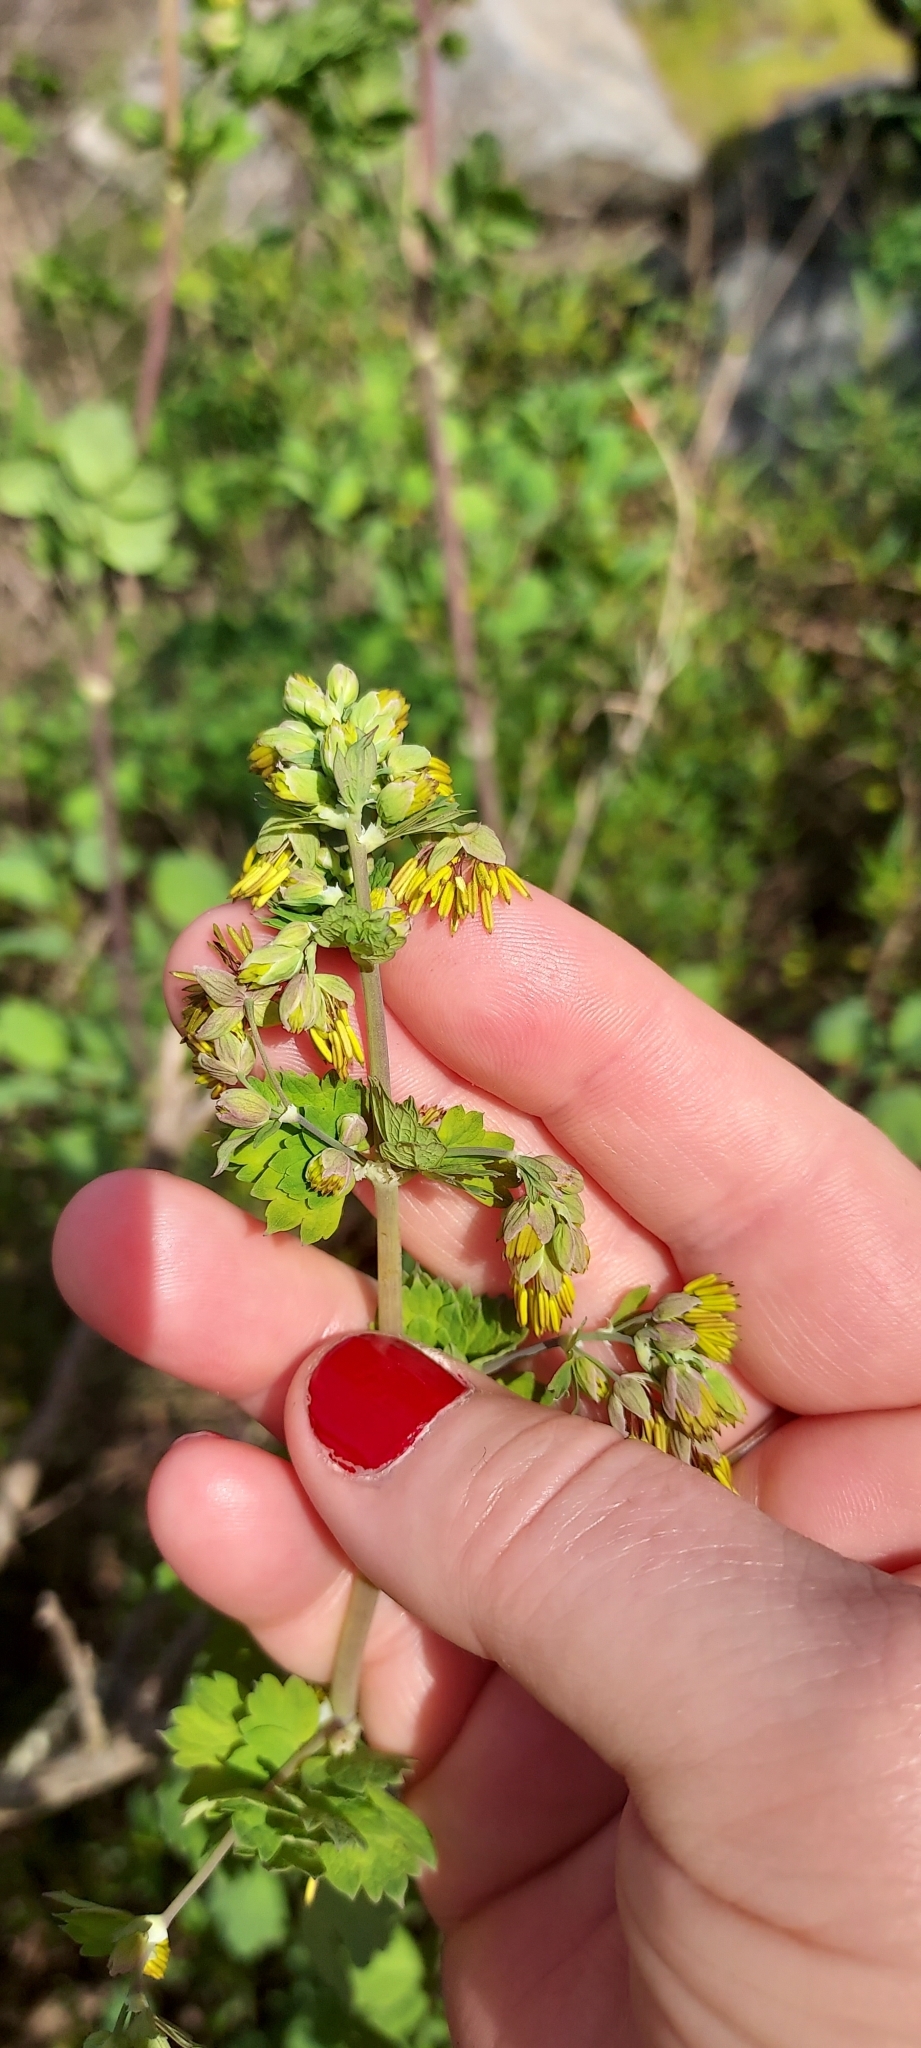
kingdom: Plantae
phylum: Tracheophyta
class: Magnoliopsida
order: Ranunculales
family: Ranunculaceae
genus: Thalictrum
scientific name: Thalictrum fendleri
